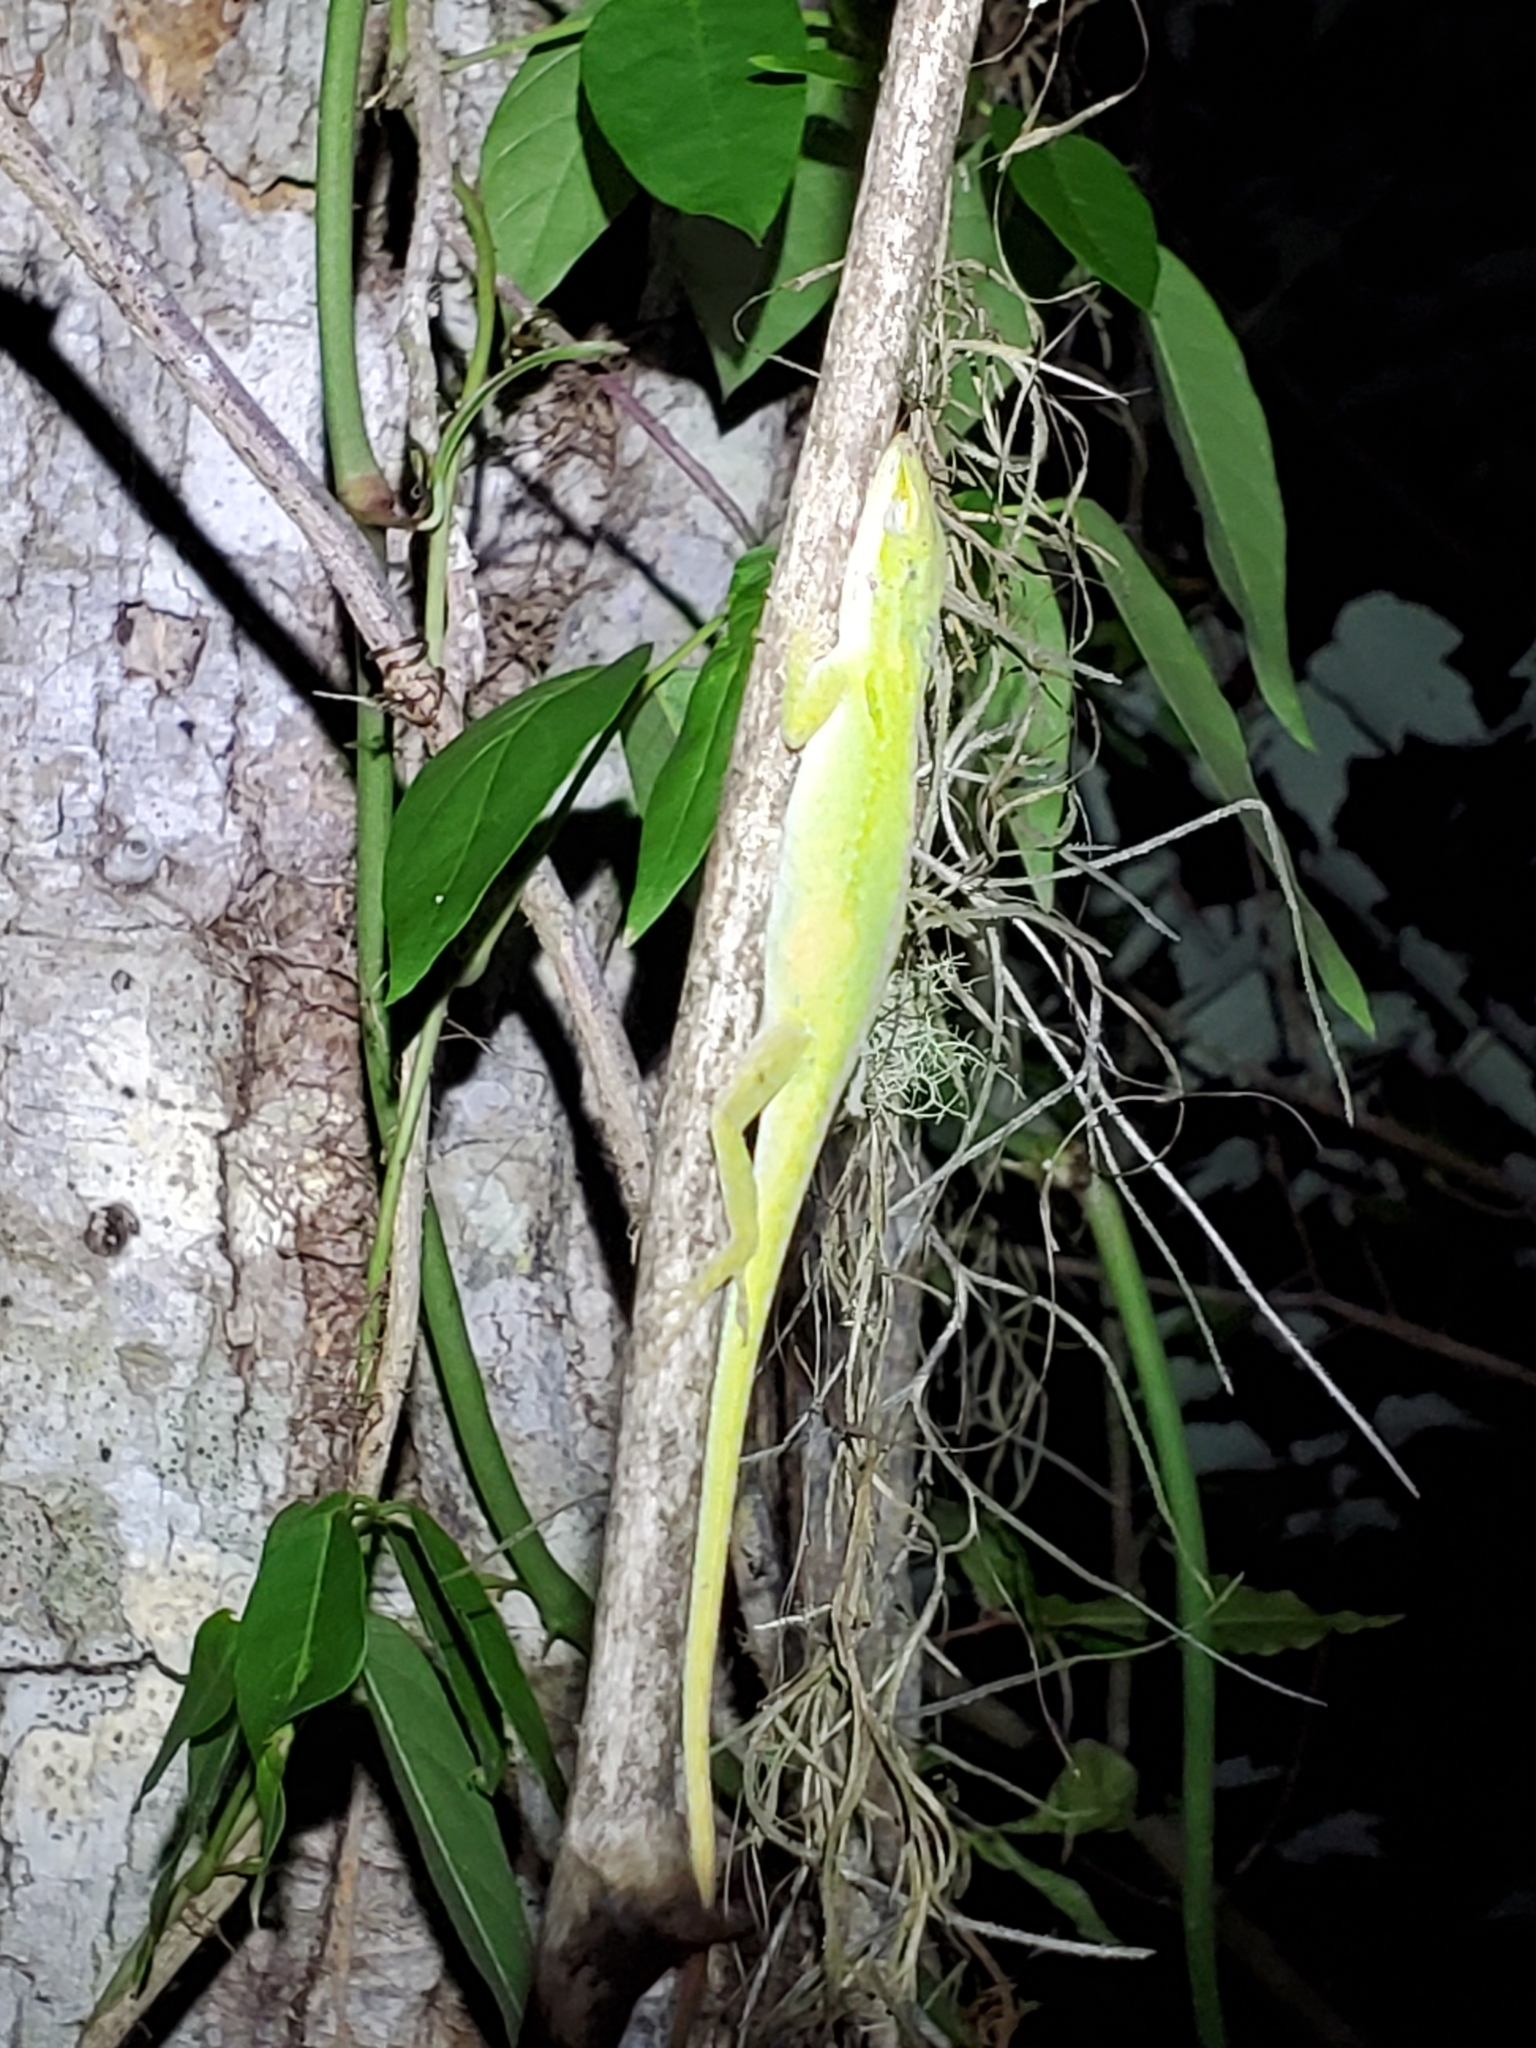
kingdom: Animalia
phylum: Chordata
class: Squamata
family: Dactyloidae
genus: Anolis
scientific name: Anolis carolinensis
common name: Green anole
